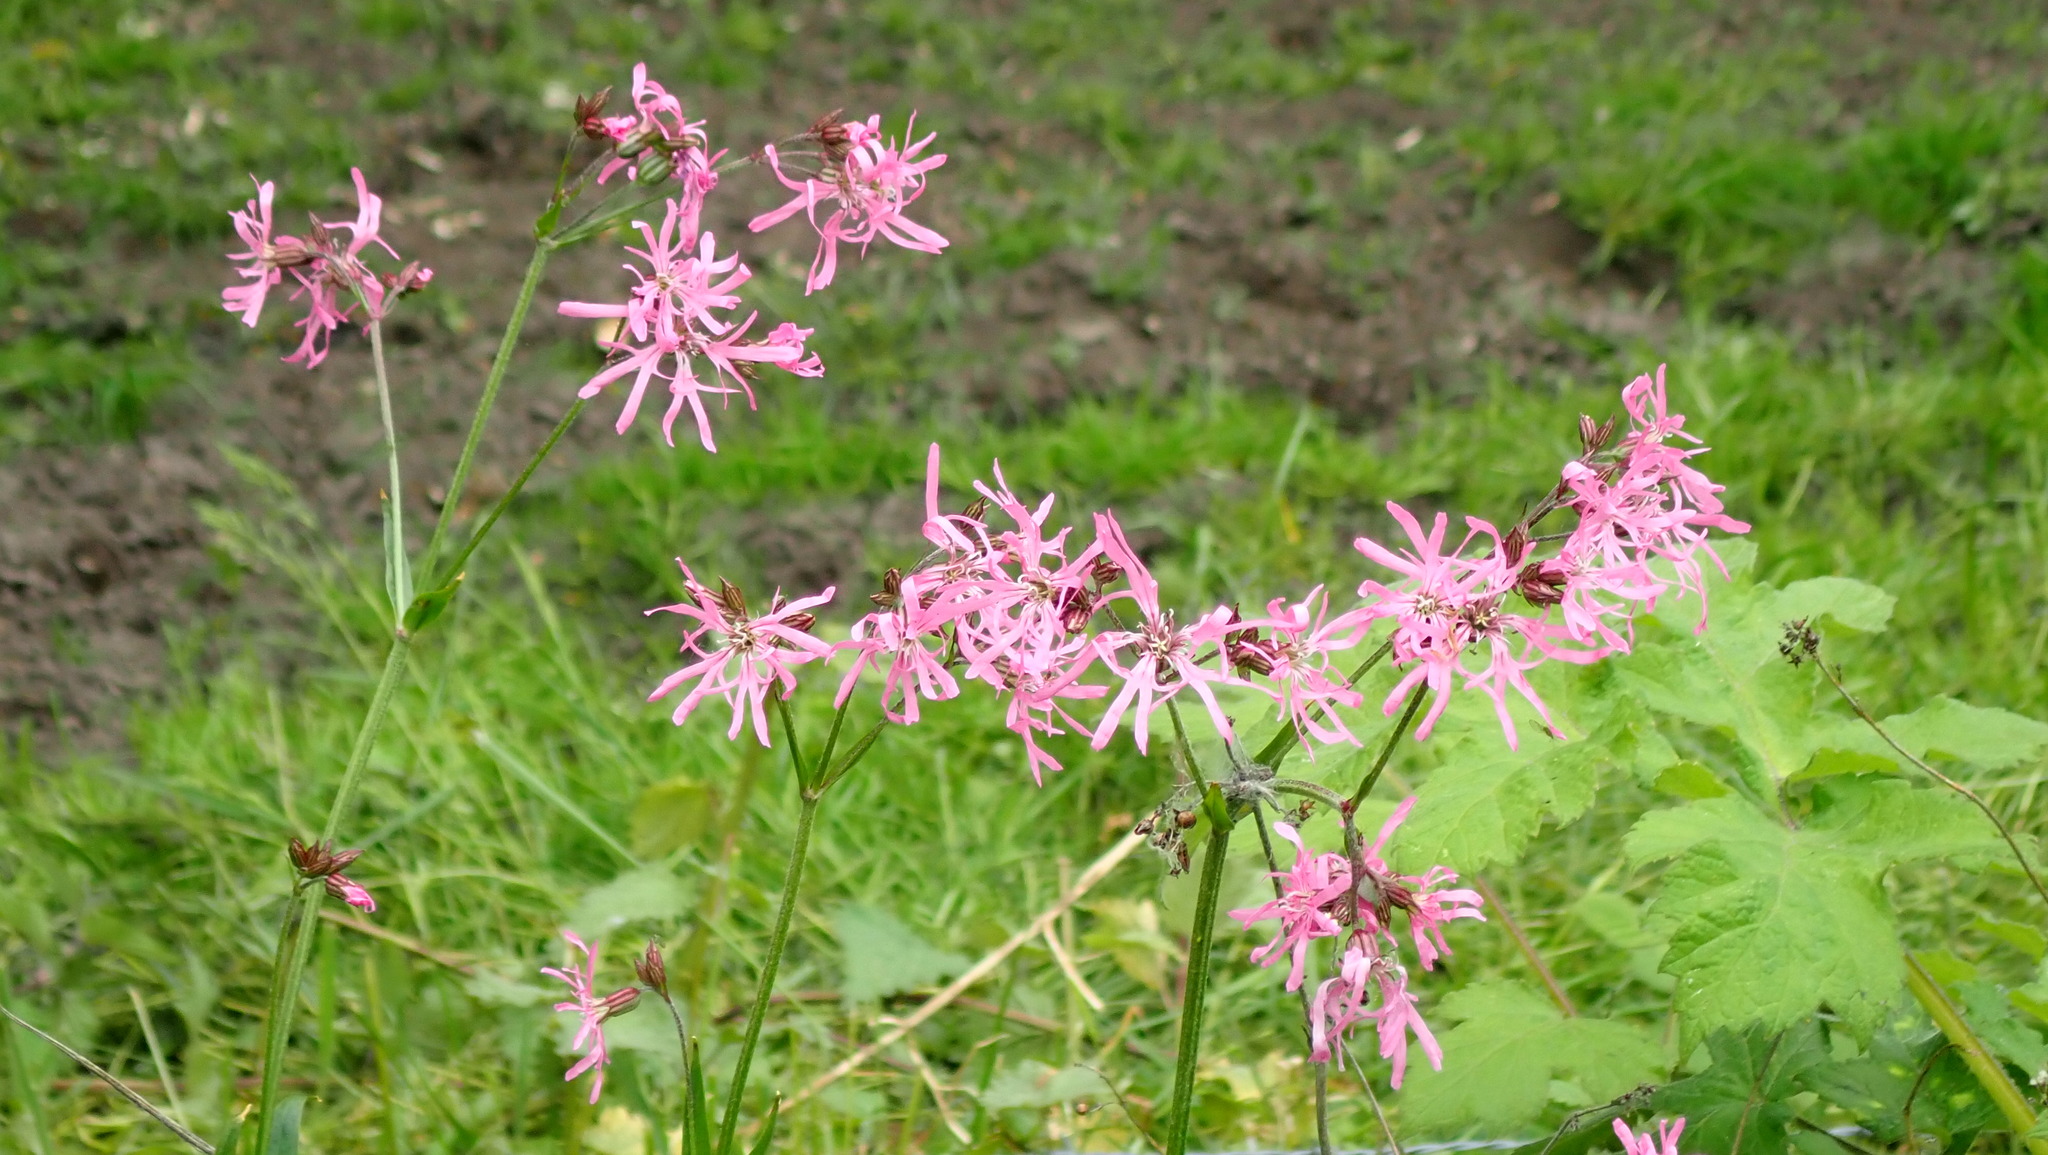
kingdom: Plantae
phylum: Tracheophyta
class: Magnoliopsida
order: Caryophyllales
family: Caryophyllaceae
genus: Silene
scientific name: Silene flos-cuculi
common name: Ragged-robin
